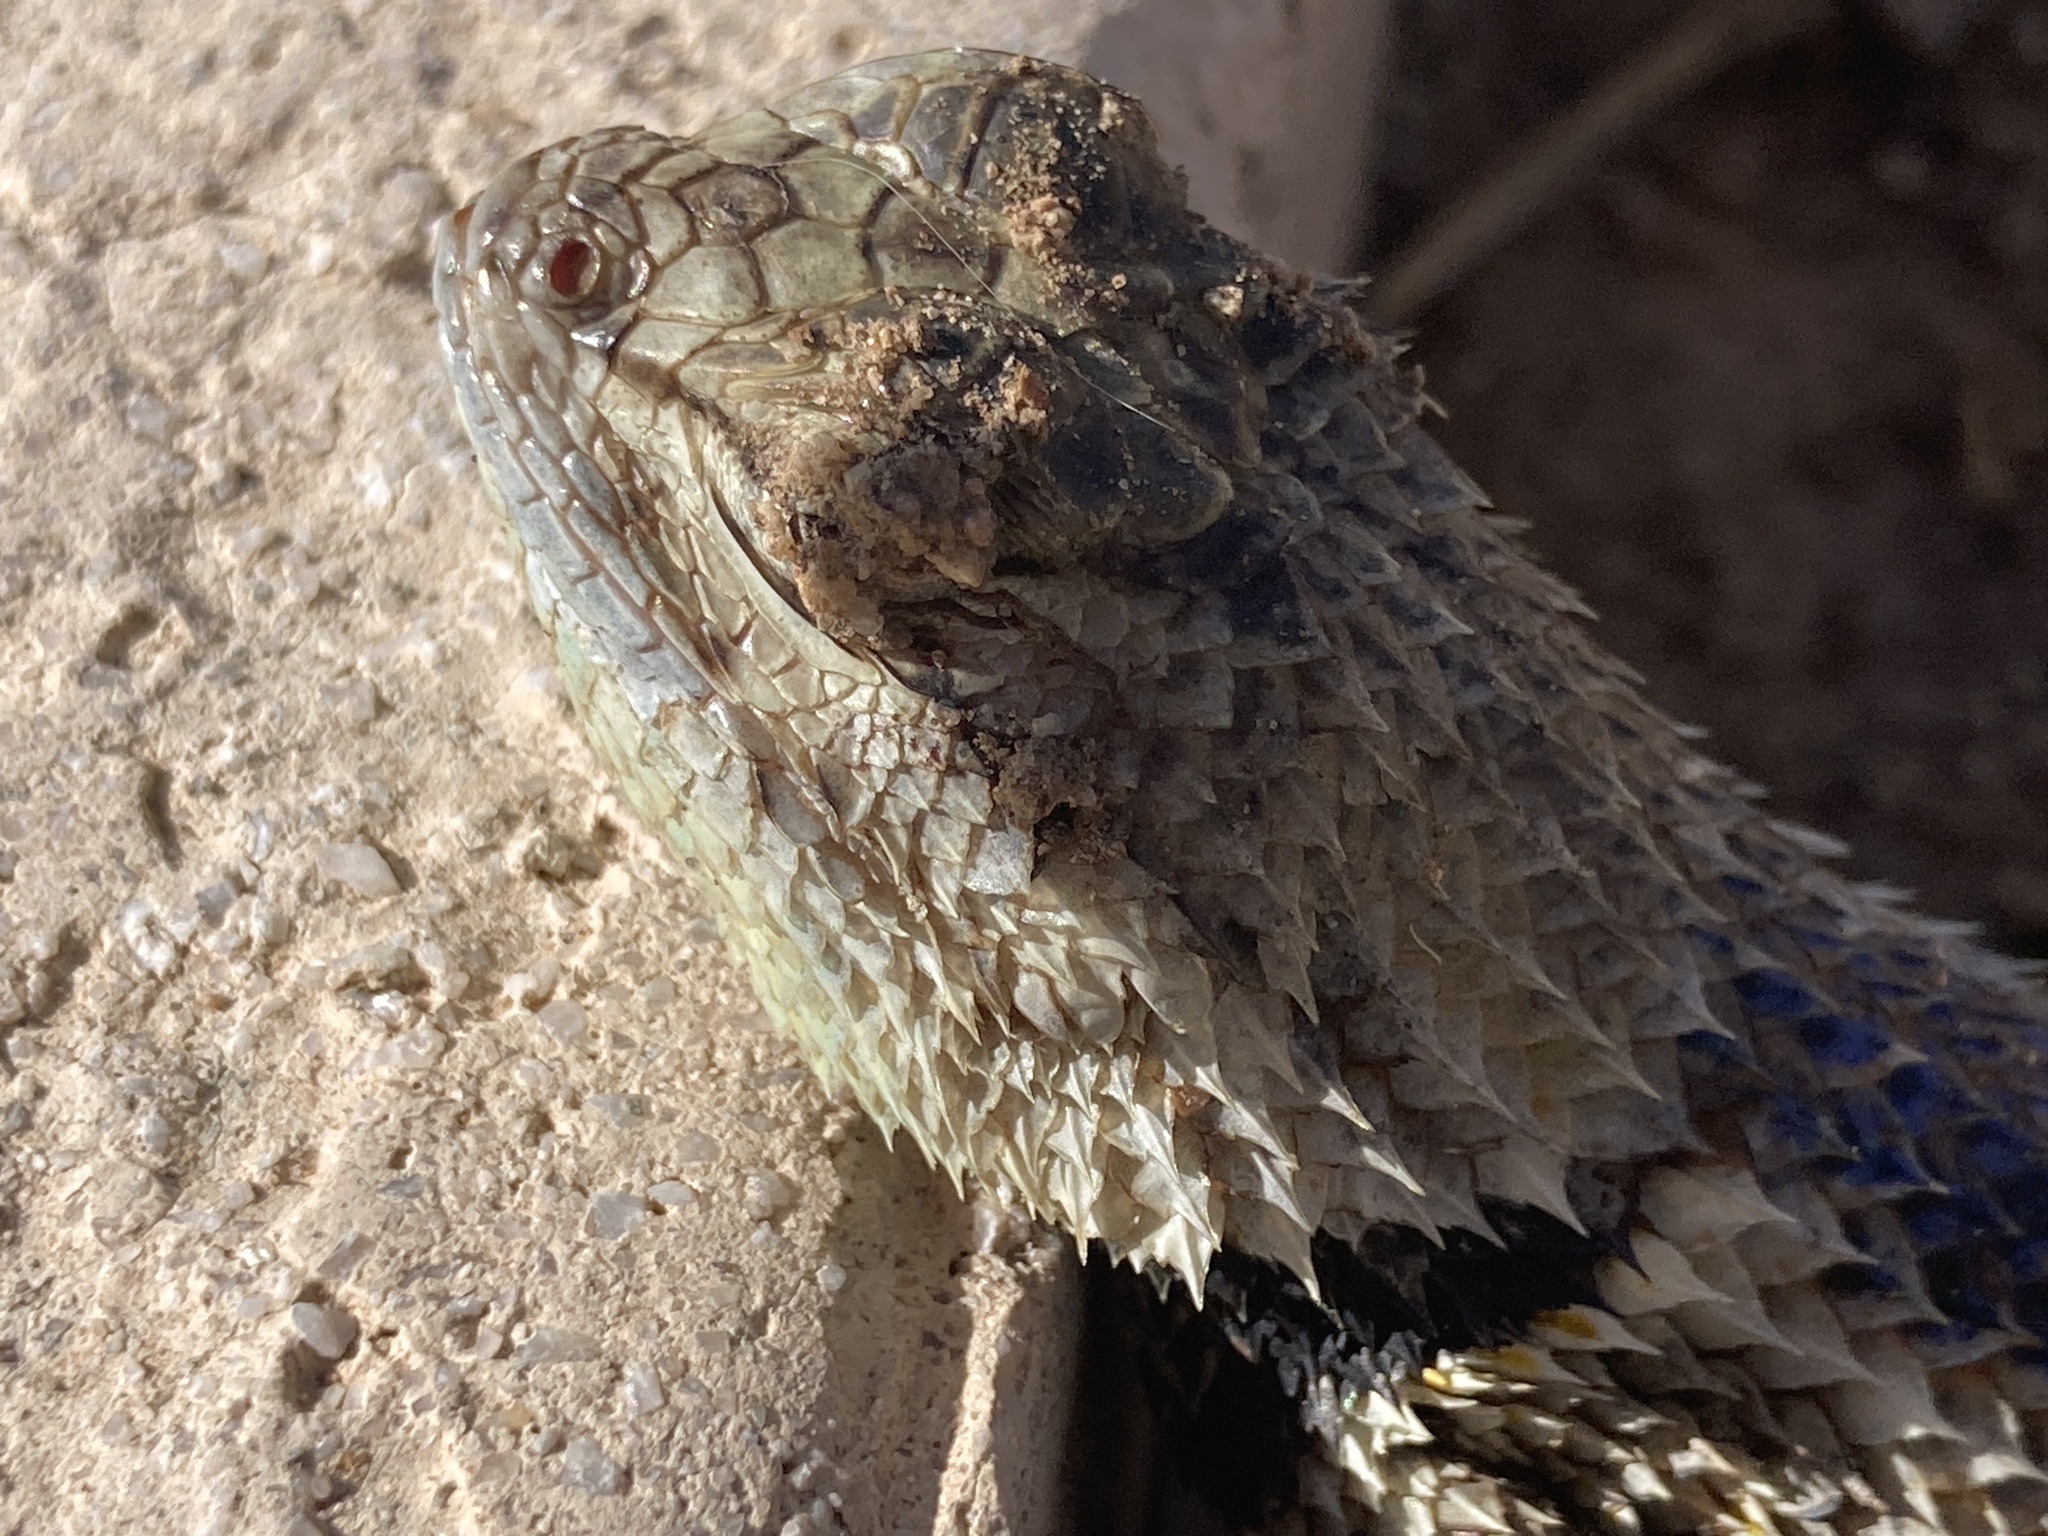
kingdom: Animalia
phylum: Chordata
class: Squamata
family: Phrynosomatidae
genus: Sceloporus
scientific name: Sceloporus magister
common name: Desert spiny lizard
